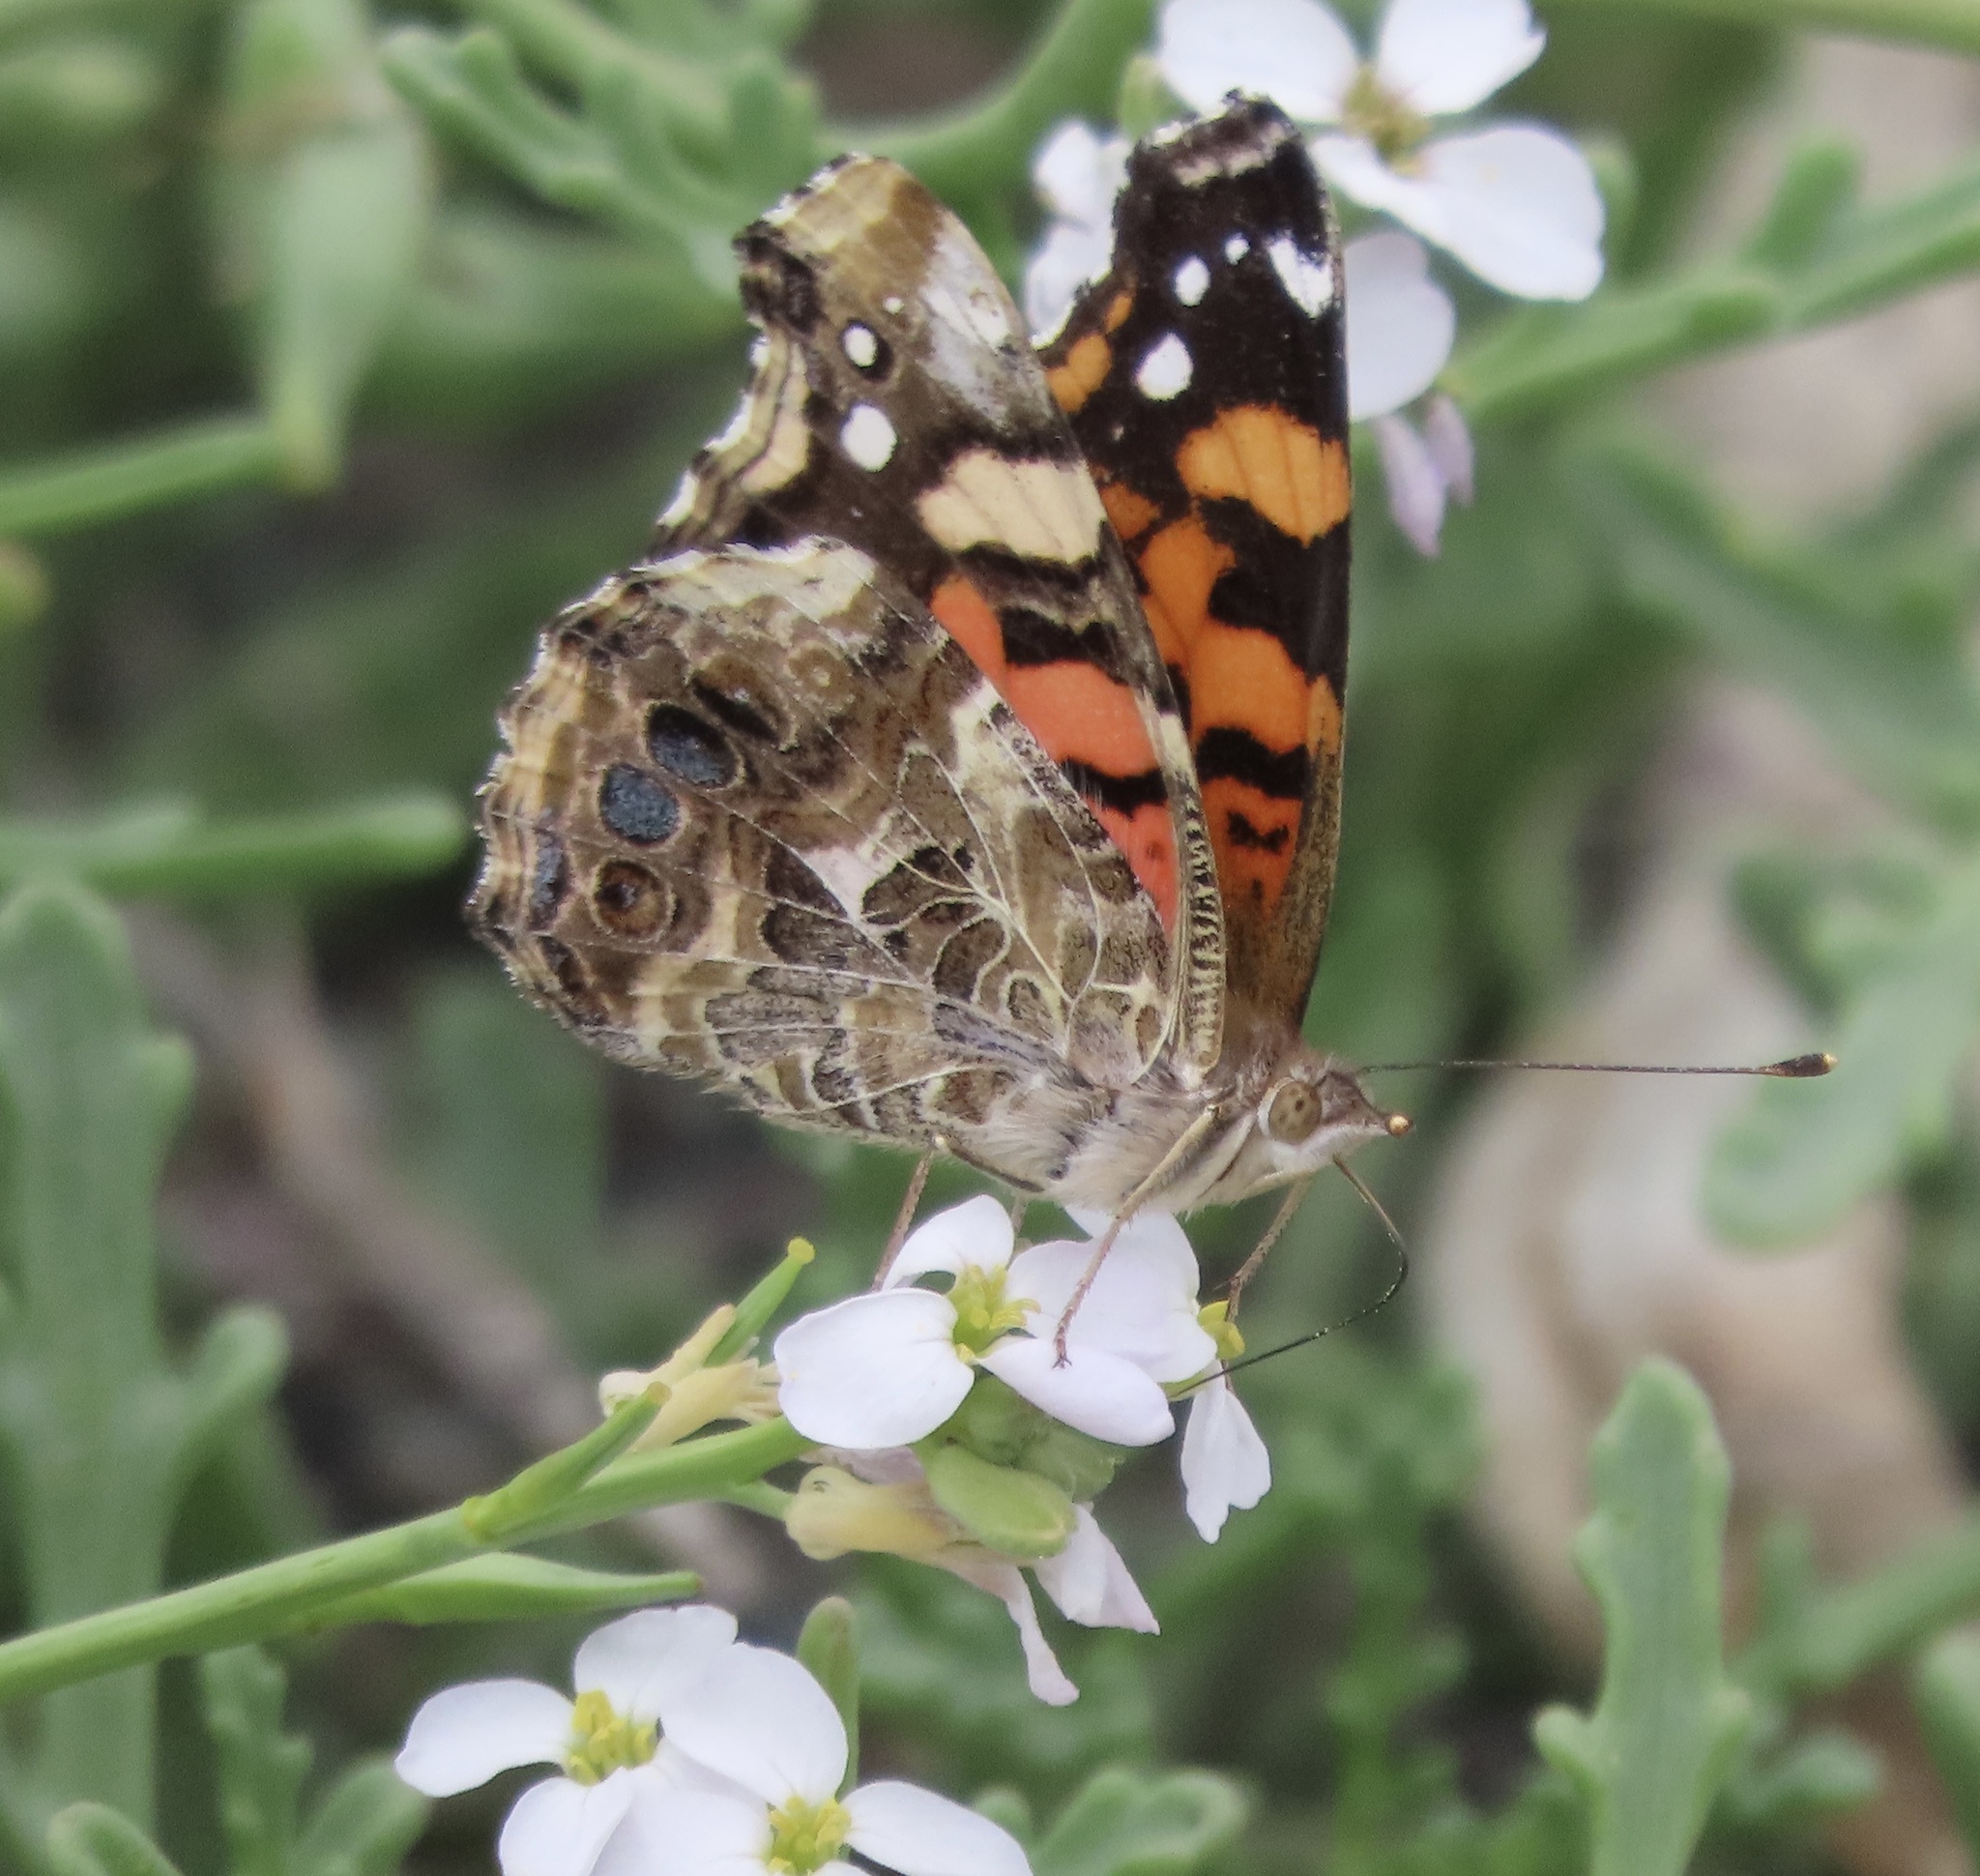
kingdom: Animalia
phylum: Arthropoda
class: Insecta
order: Lepidoptera
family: Nymphalidae
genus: Vanessa
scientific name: Vanessa annabella
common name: West coast lady
